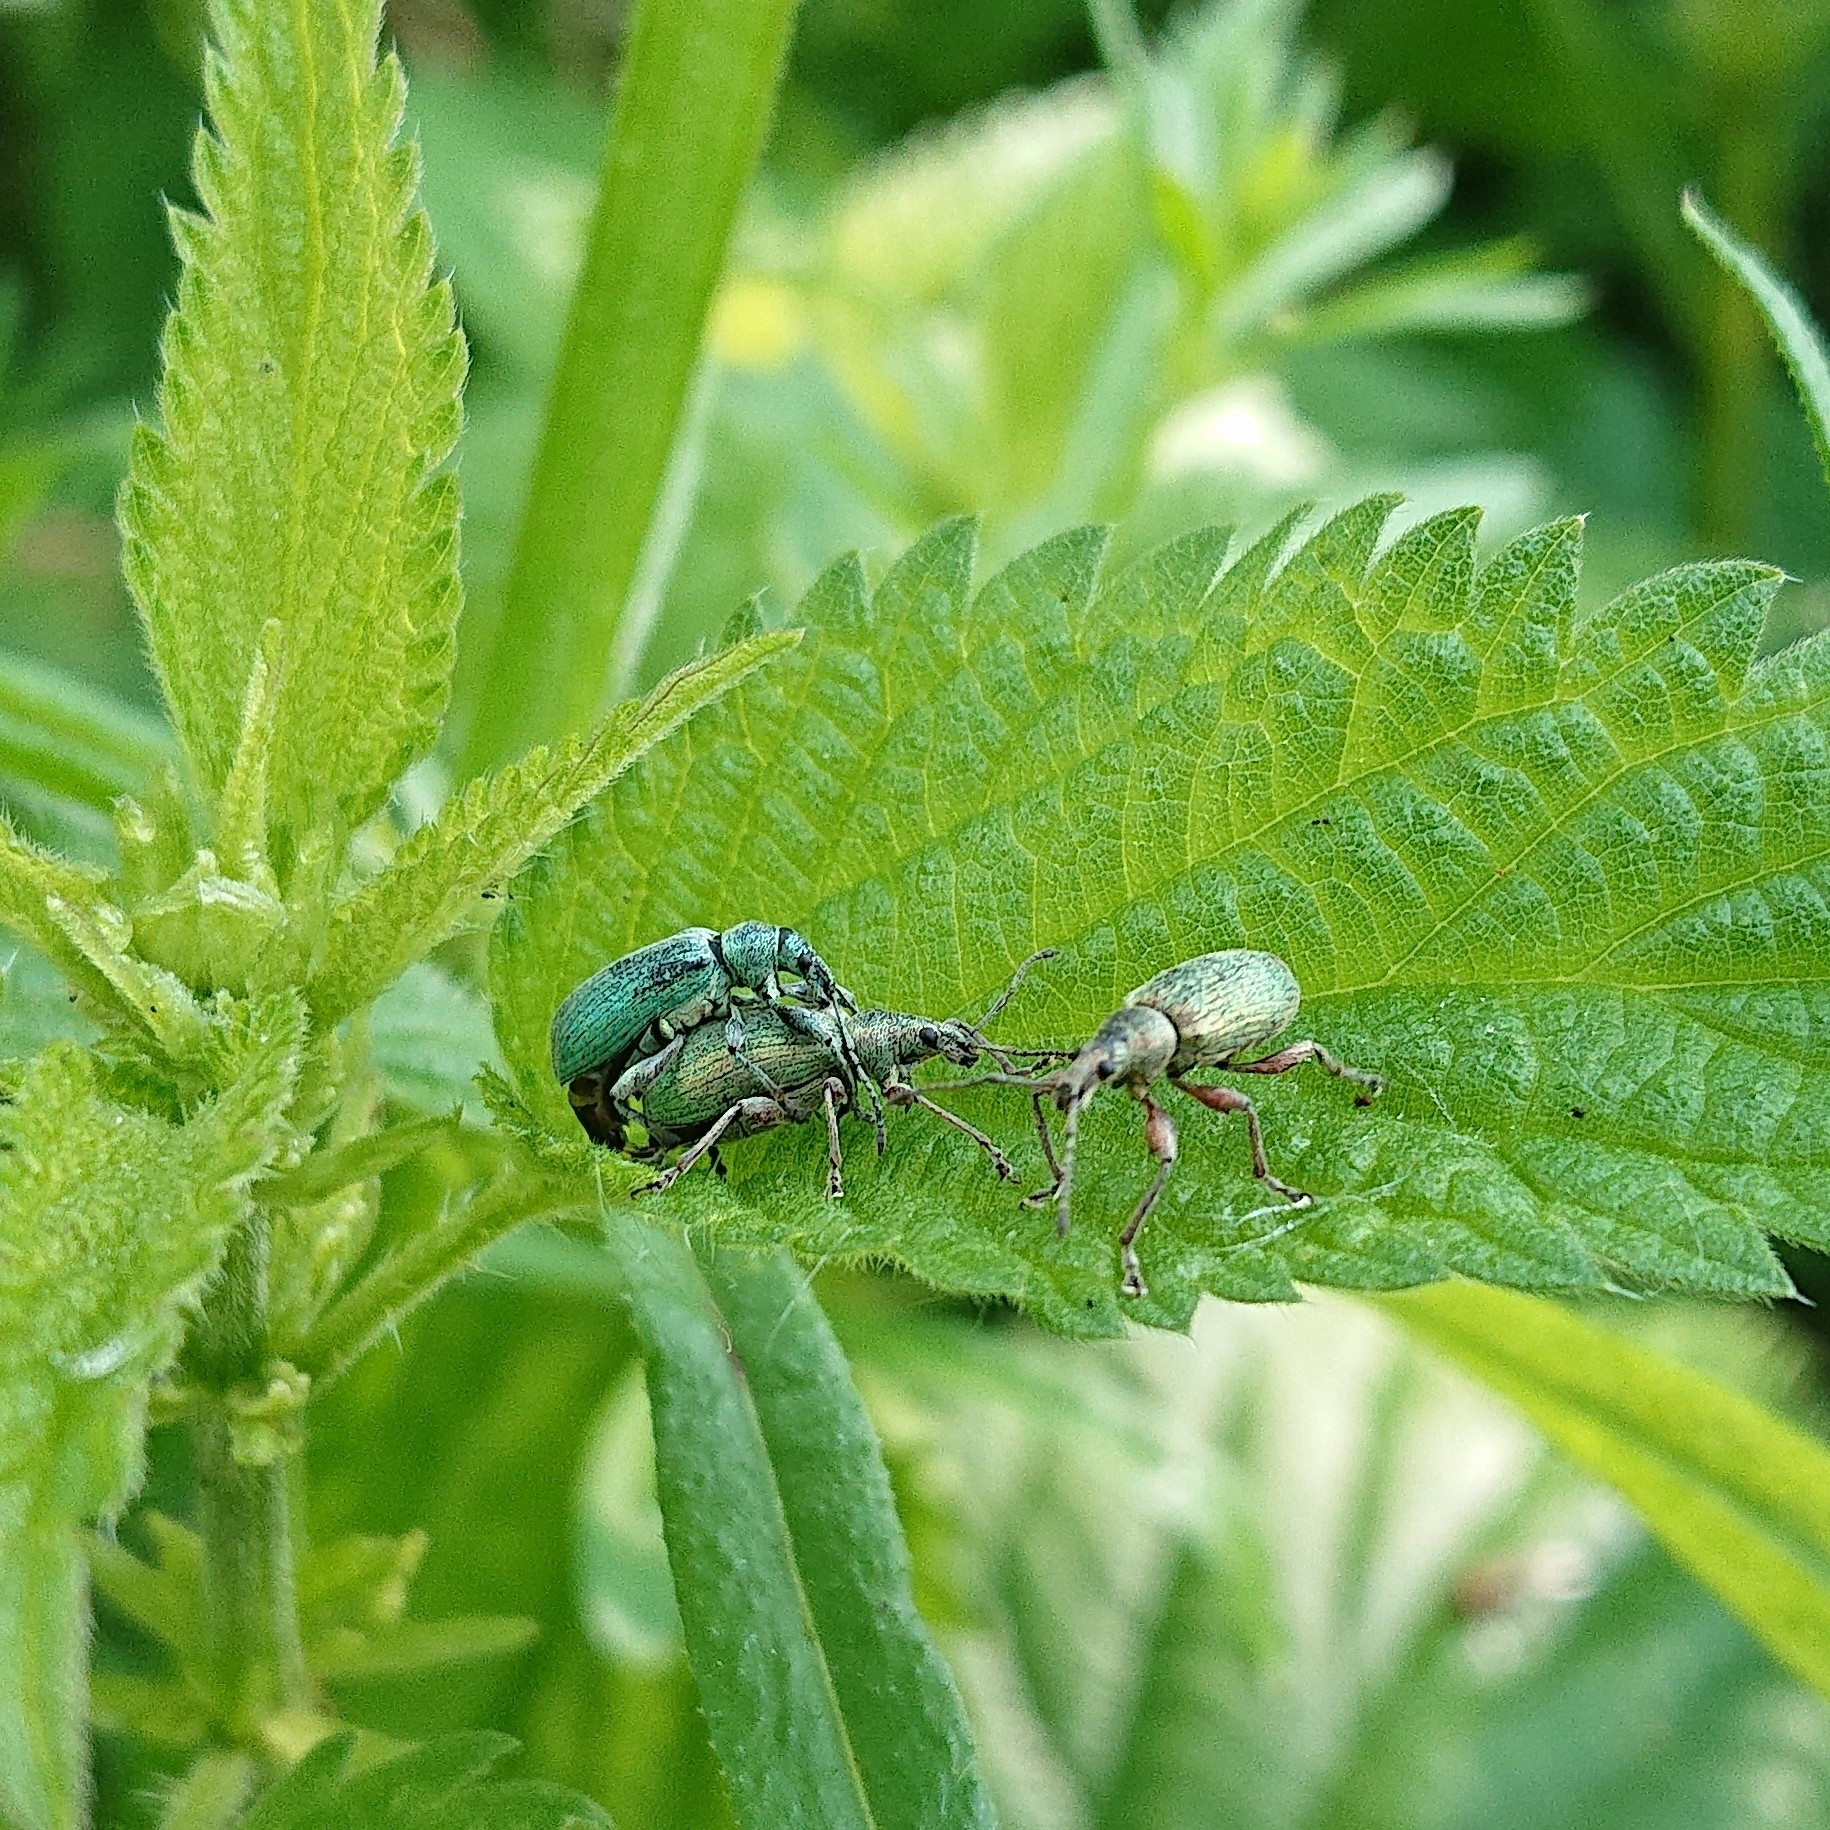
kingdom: Animalia
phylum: Arthropoda
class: Insecta
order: Coleoptera
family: Curculionidae
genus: Phyllobius
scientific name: Phyllobius pomaceus
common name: Green nettle weevil
